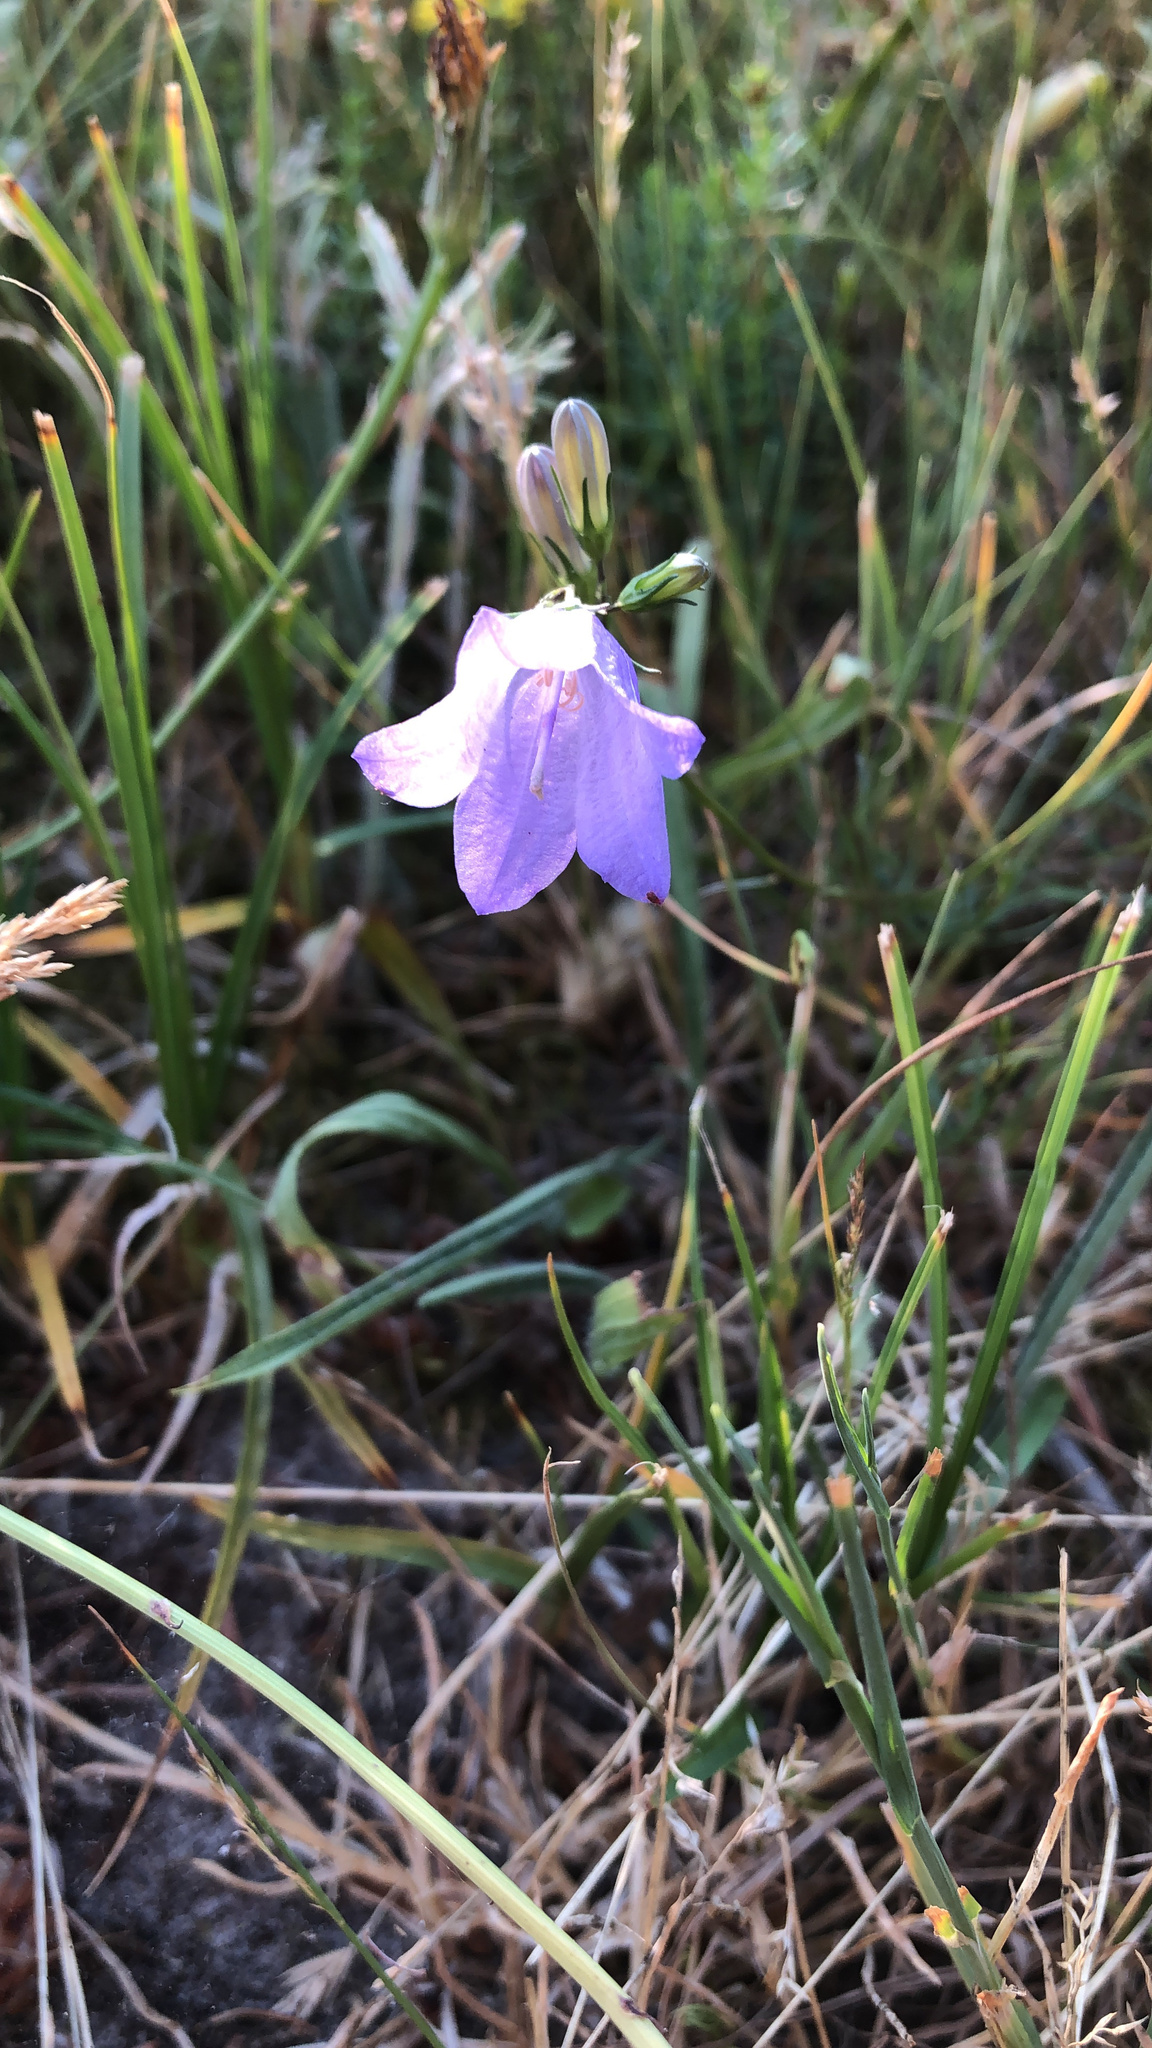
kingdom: Plantae
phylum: Tracheophyta
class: Magnoliopsida
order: Asterales
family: Campanulaceae
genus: Campanula
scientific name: Campanula rotundifolia
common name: Harebell
